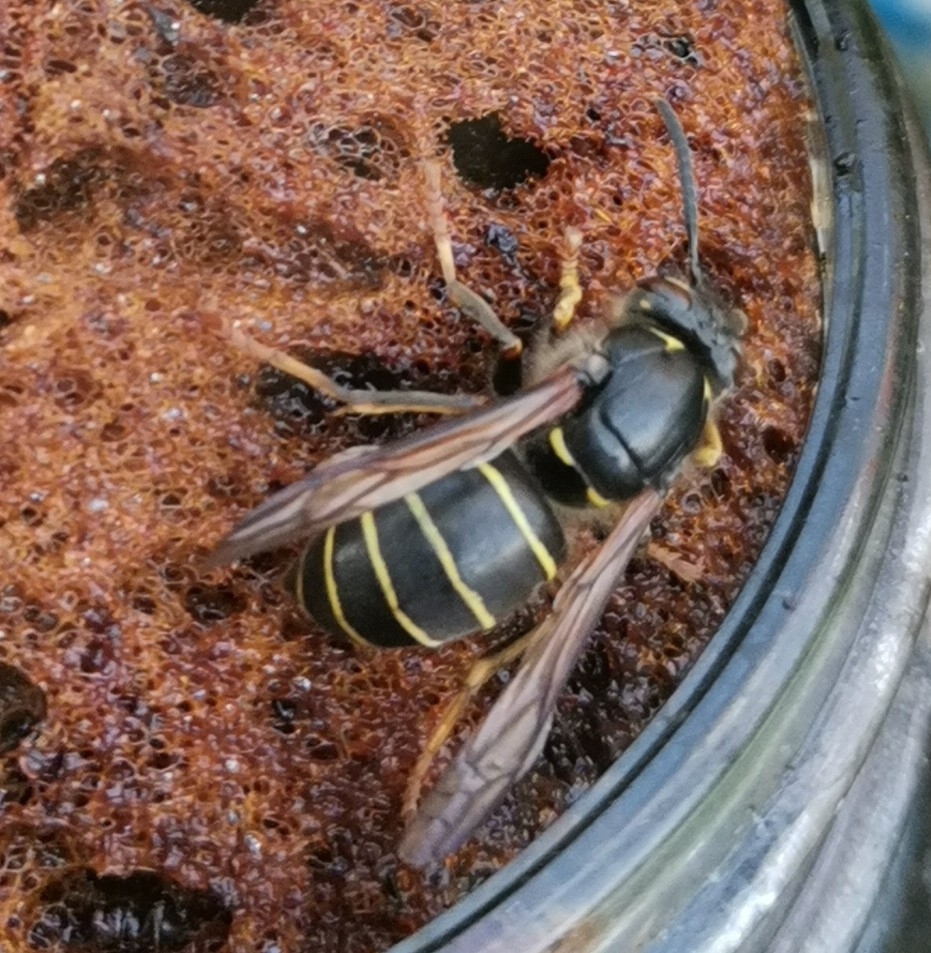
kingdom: Animalia
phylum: Arthropoda
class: Insecta
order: Hymenoptera
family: Vespidae
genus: Dolichovespula
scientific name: Dolichovespula media
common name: Median wasp
